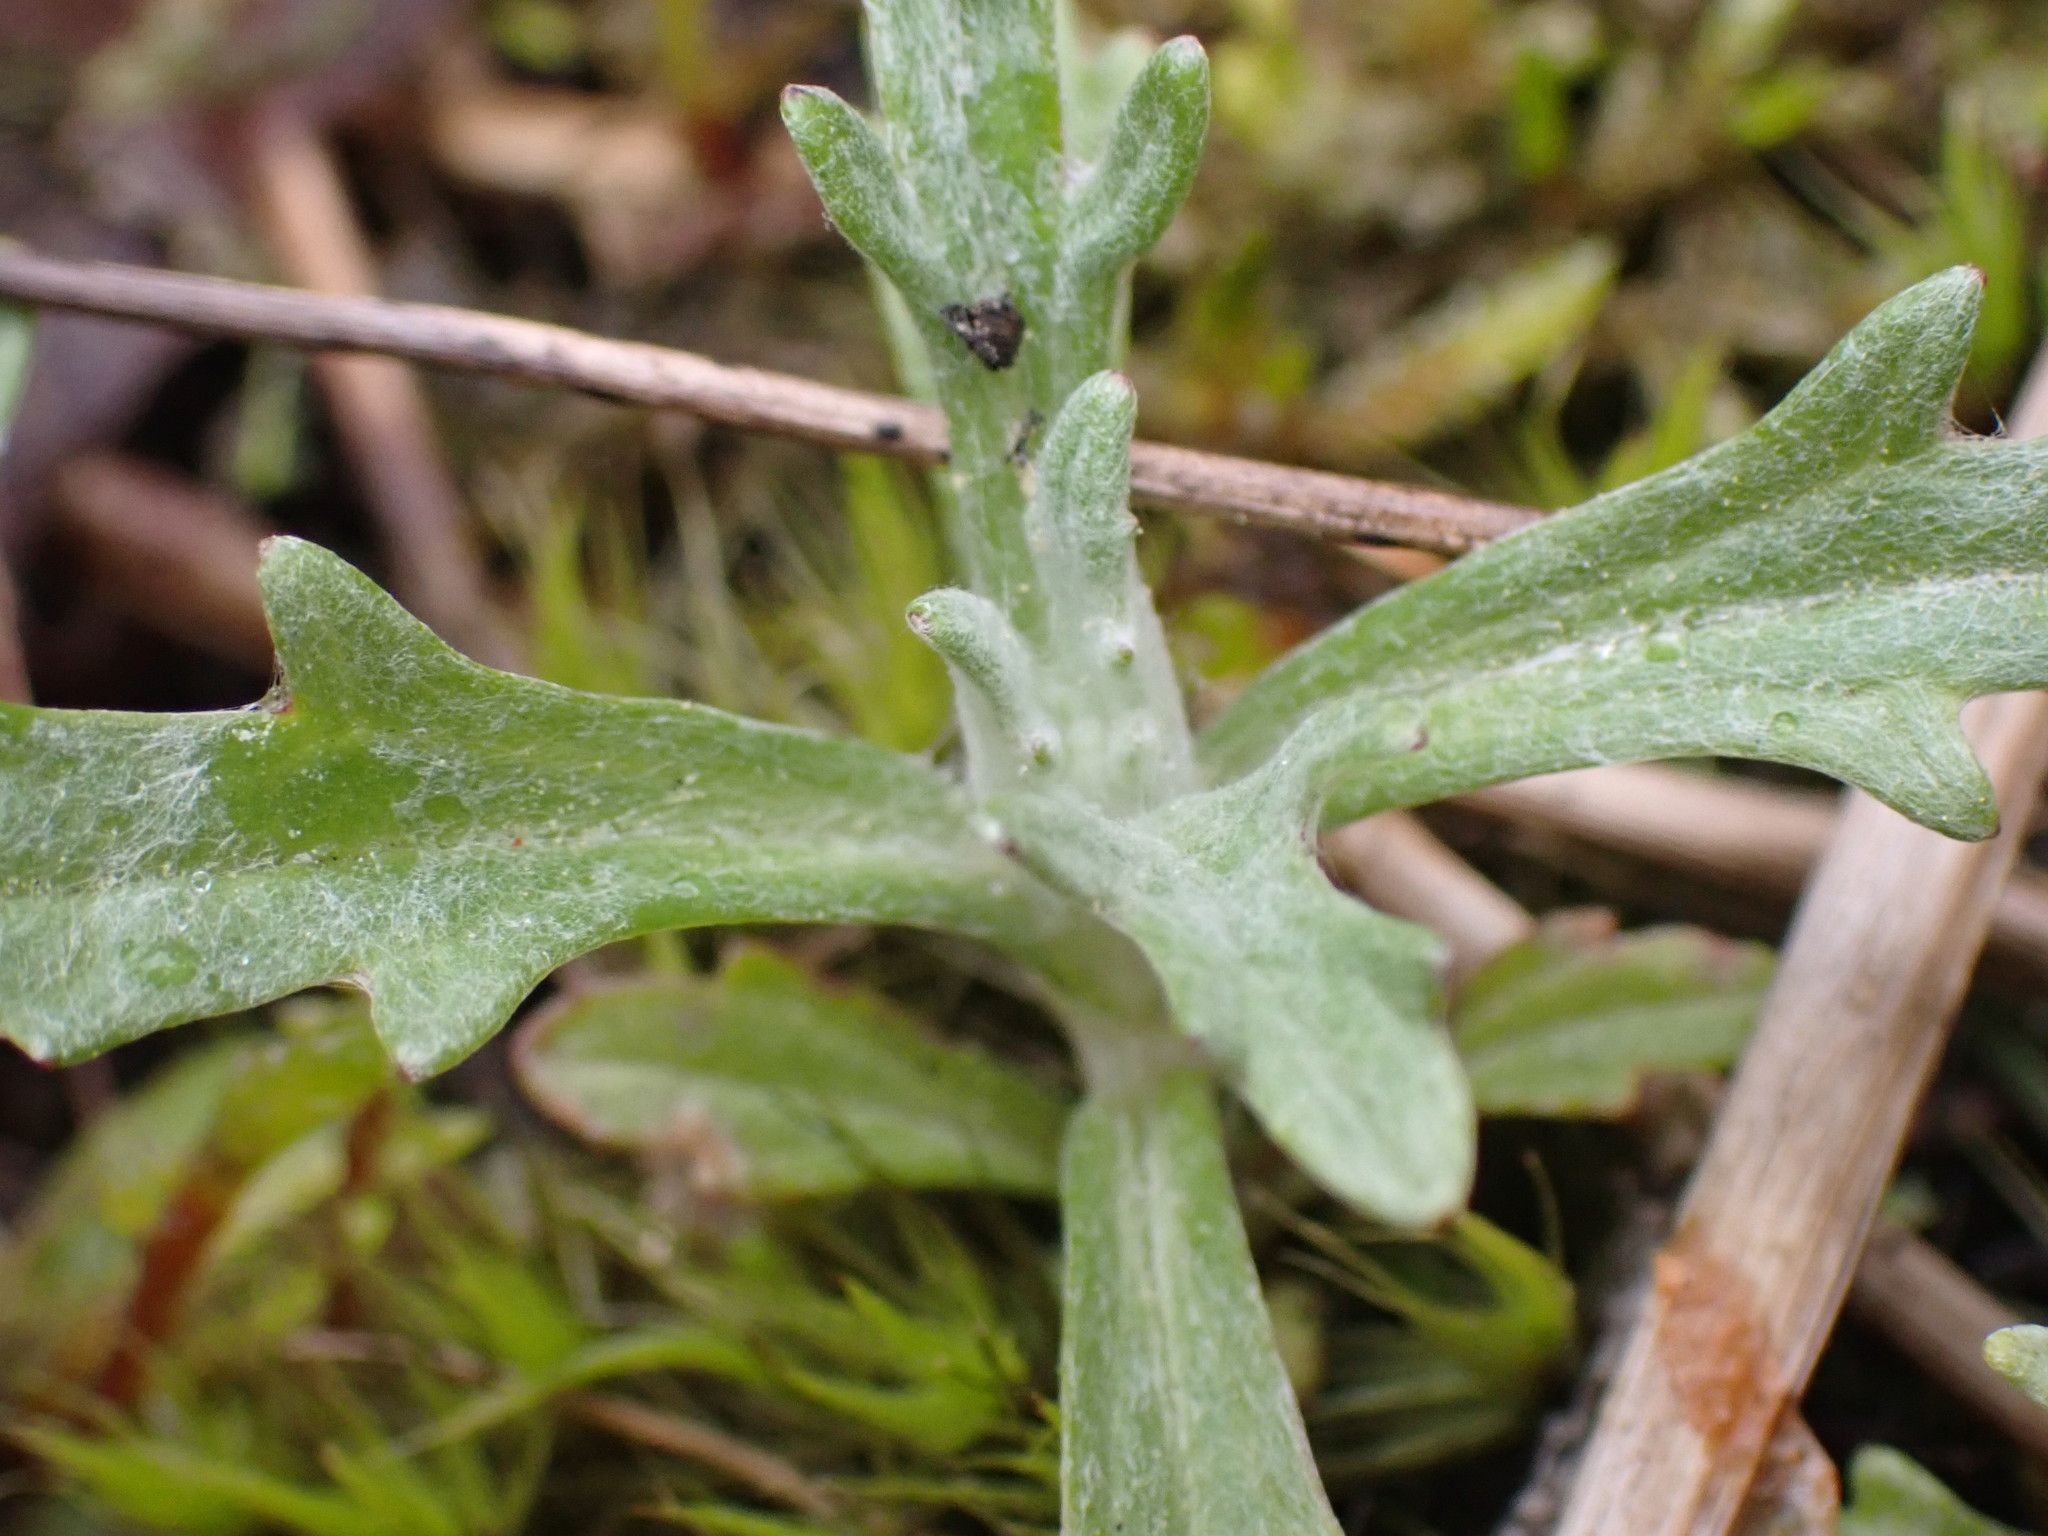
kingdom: Plantae
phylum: Tracheophyta
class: Magnoliopsida
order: Asterales
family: Asteraceae
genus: Eriophyllum
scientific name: Eriophyllum lanatum
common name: Common woolly-sunflower
